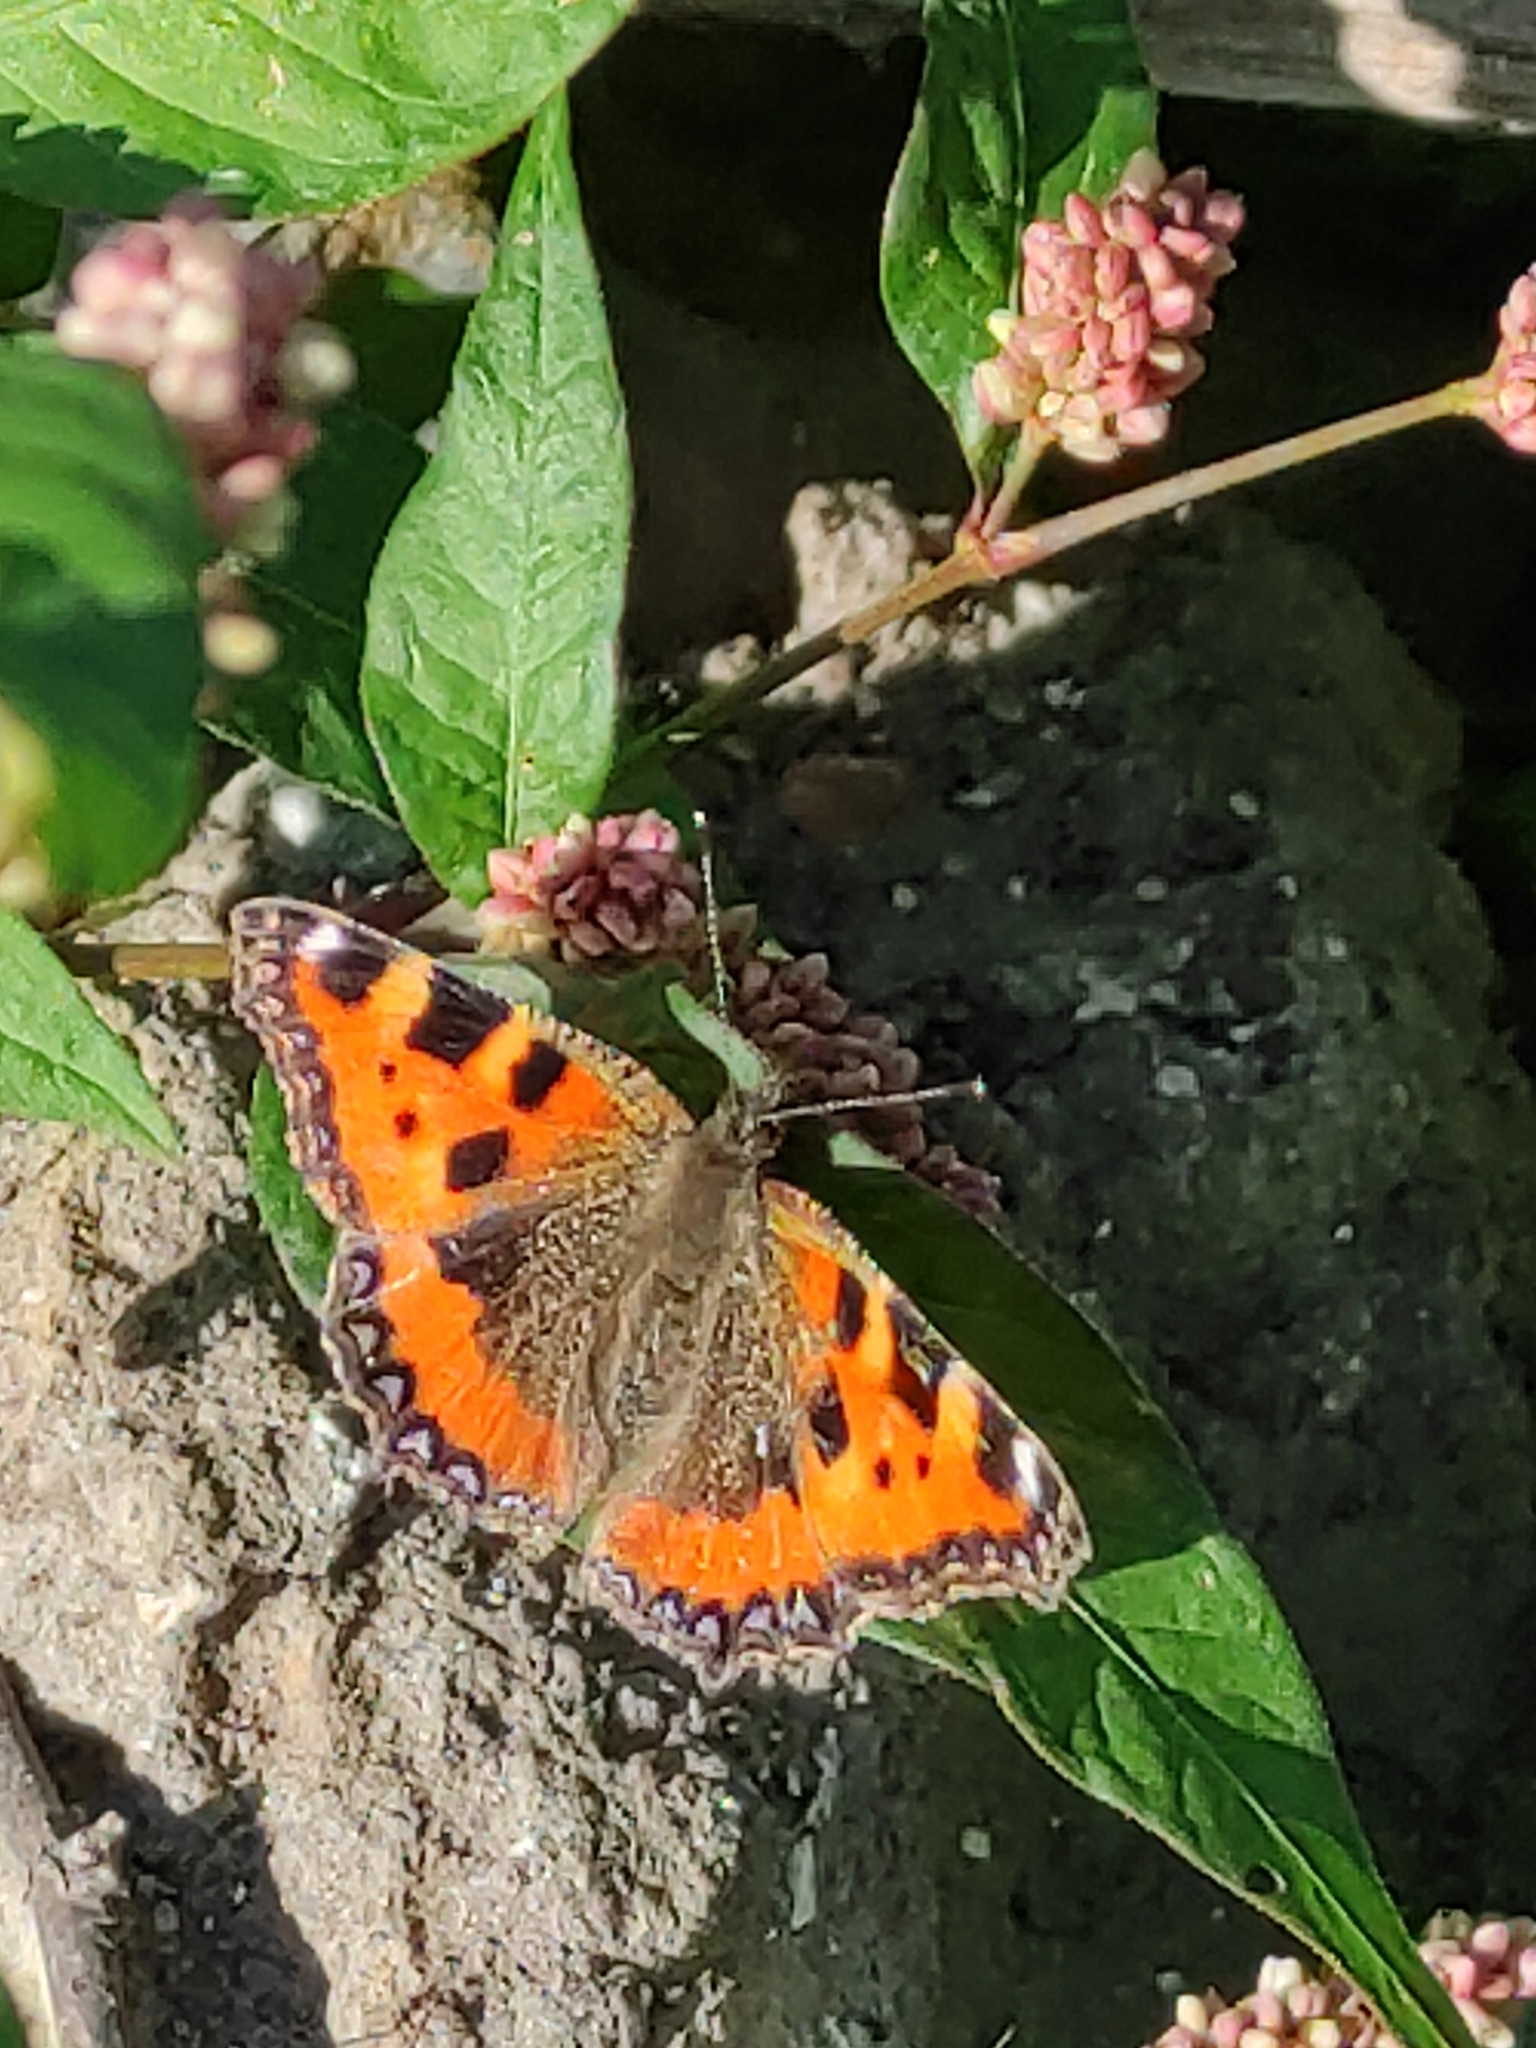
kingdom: Animalia
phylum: Arthropoda
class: Insecta
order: Lepidoptera
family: Nymphalidae
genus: Aglais
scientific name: Aglais urticae
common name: Small tortoiseshell
